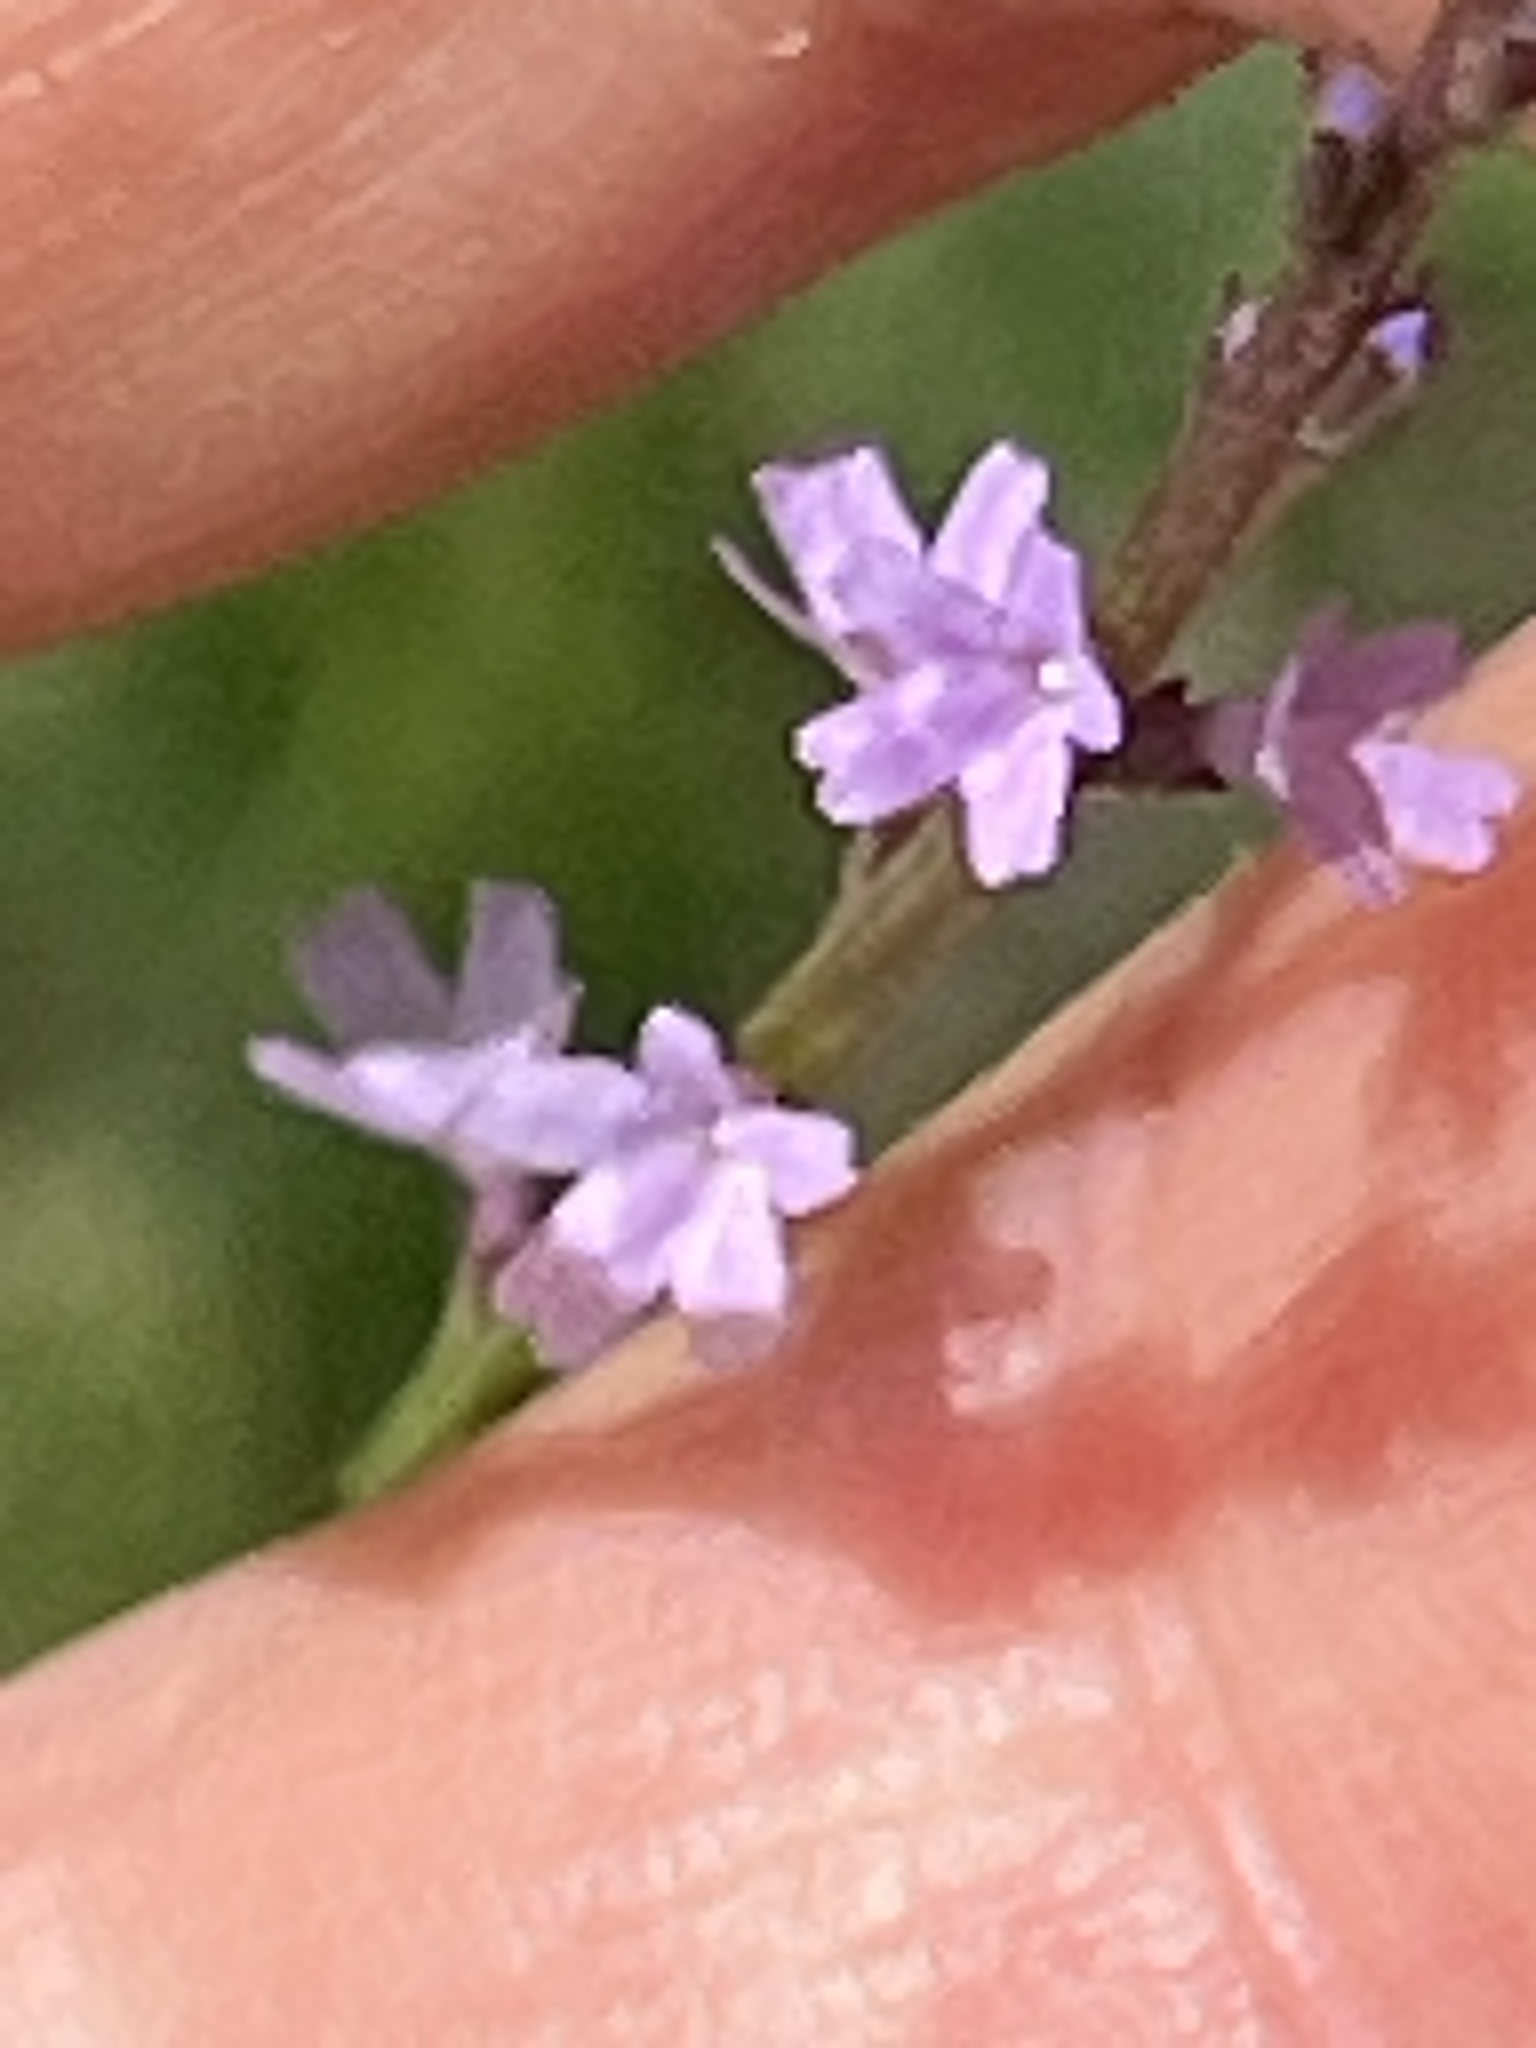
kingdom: Plantae
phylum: Tracheophyta
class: Magnoliopsida
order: Lamiales
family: Verbenaceae
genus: Verbena
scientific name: Verbena halei
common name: Texas vervain
